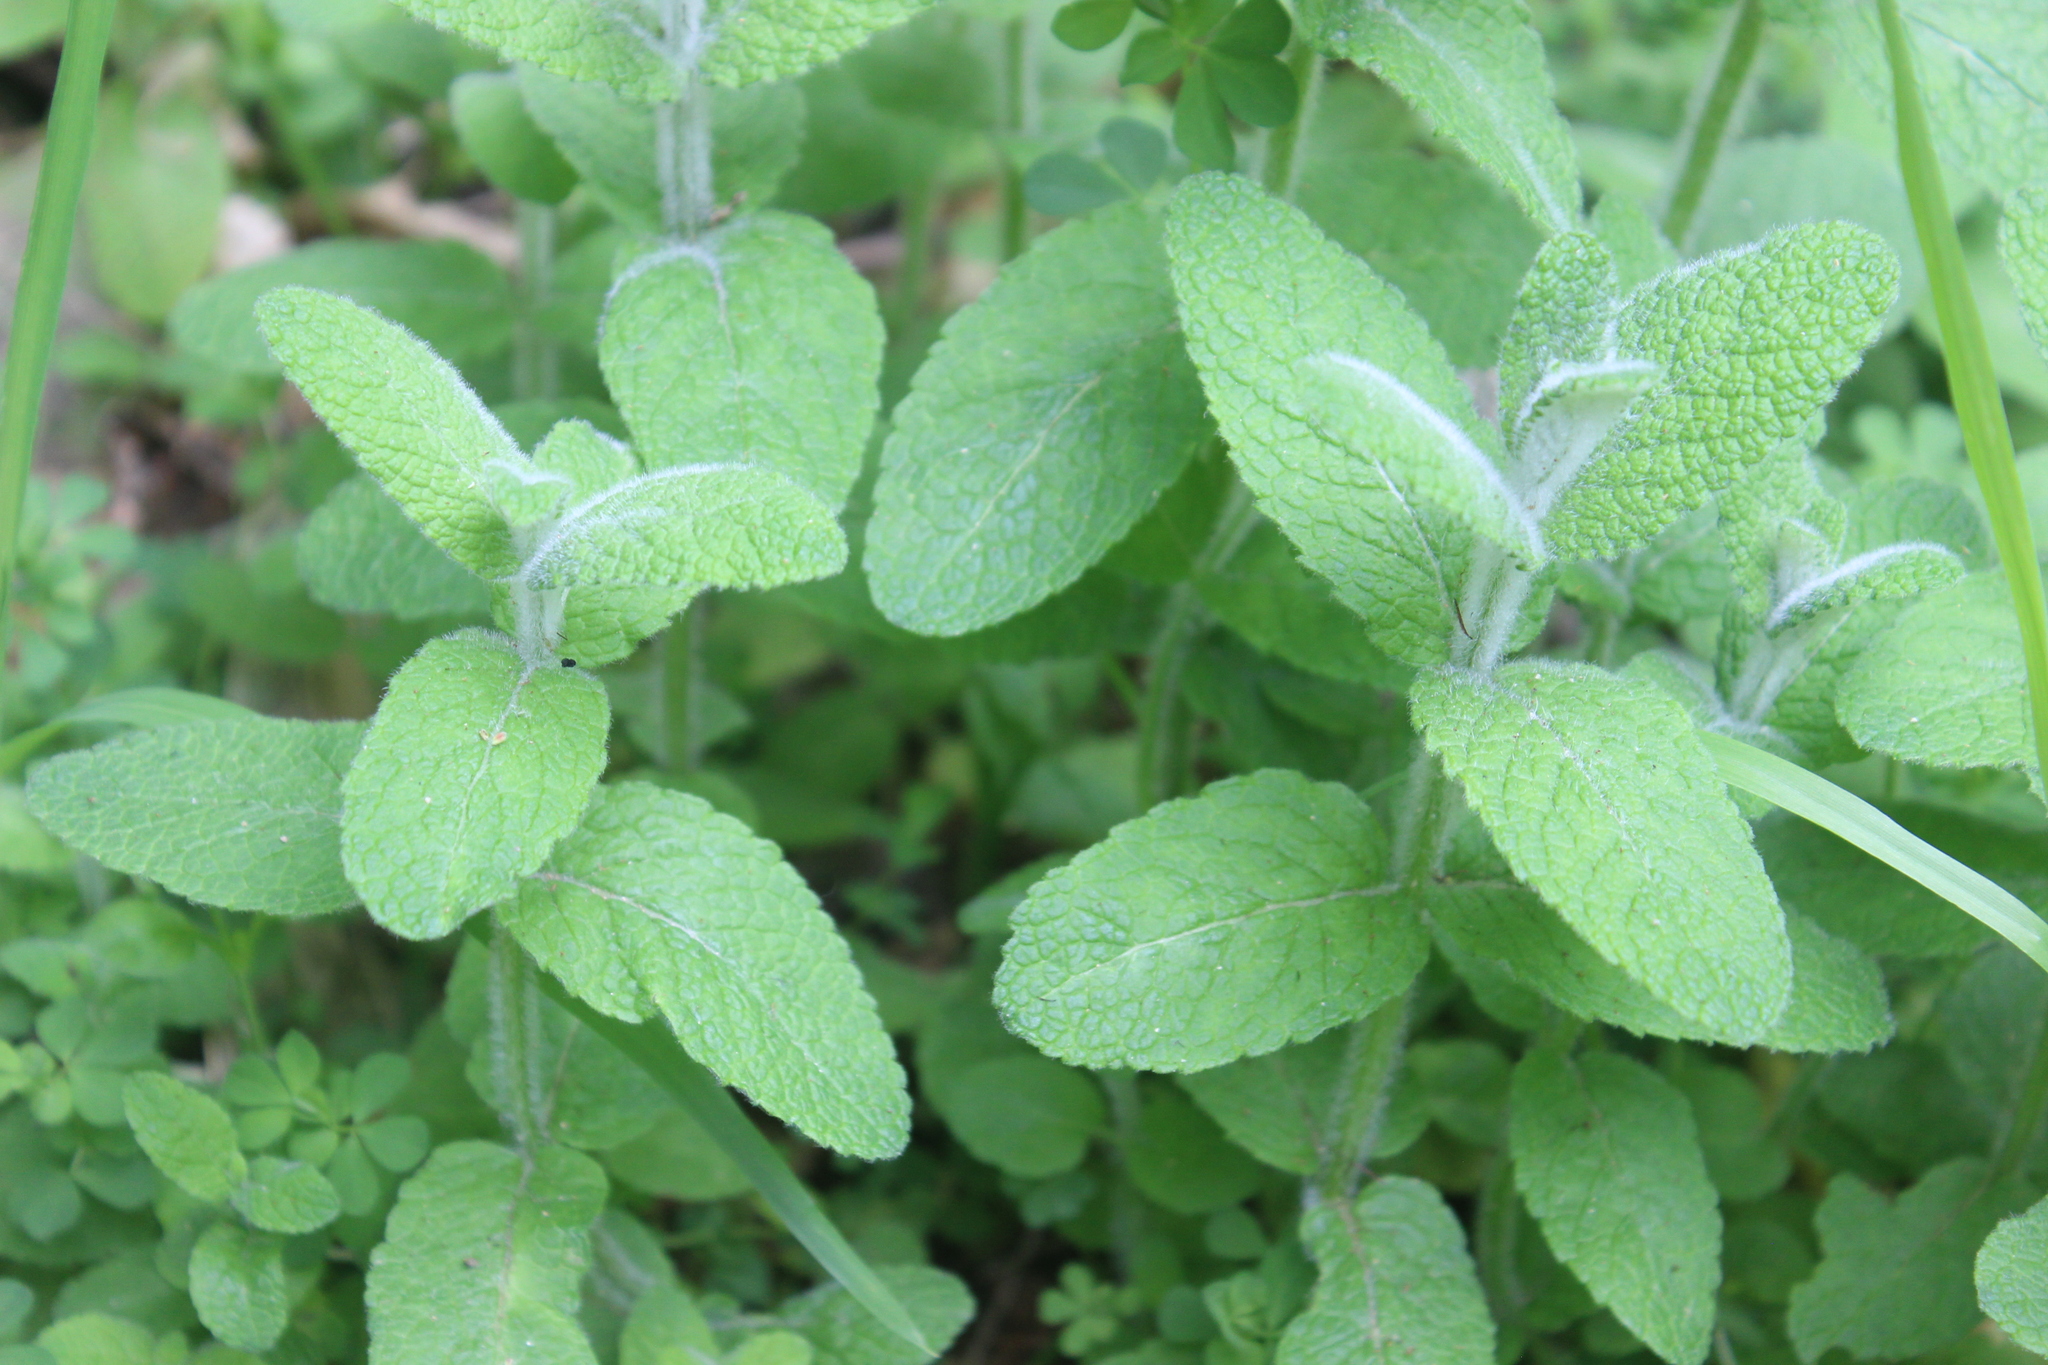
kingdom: Plantae
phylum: Tracheophyta
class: Magnoliopsida
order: Lamiales
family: Lamiaceae
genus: Mentha
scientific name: Mentha suaveolens
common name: Apple mint
